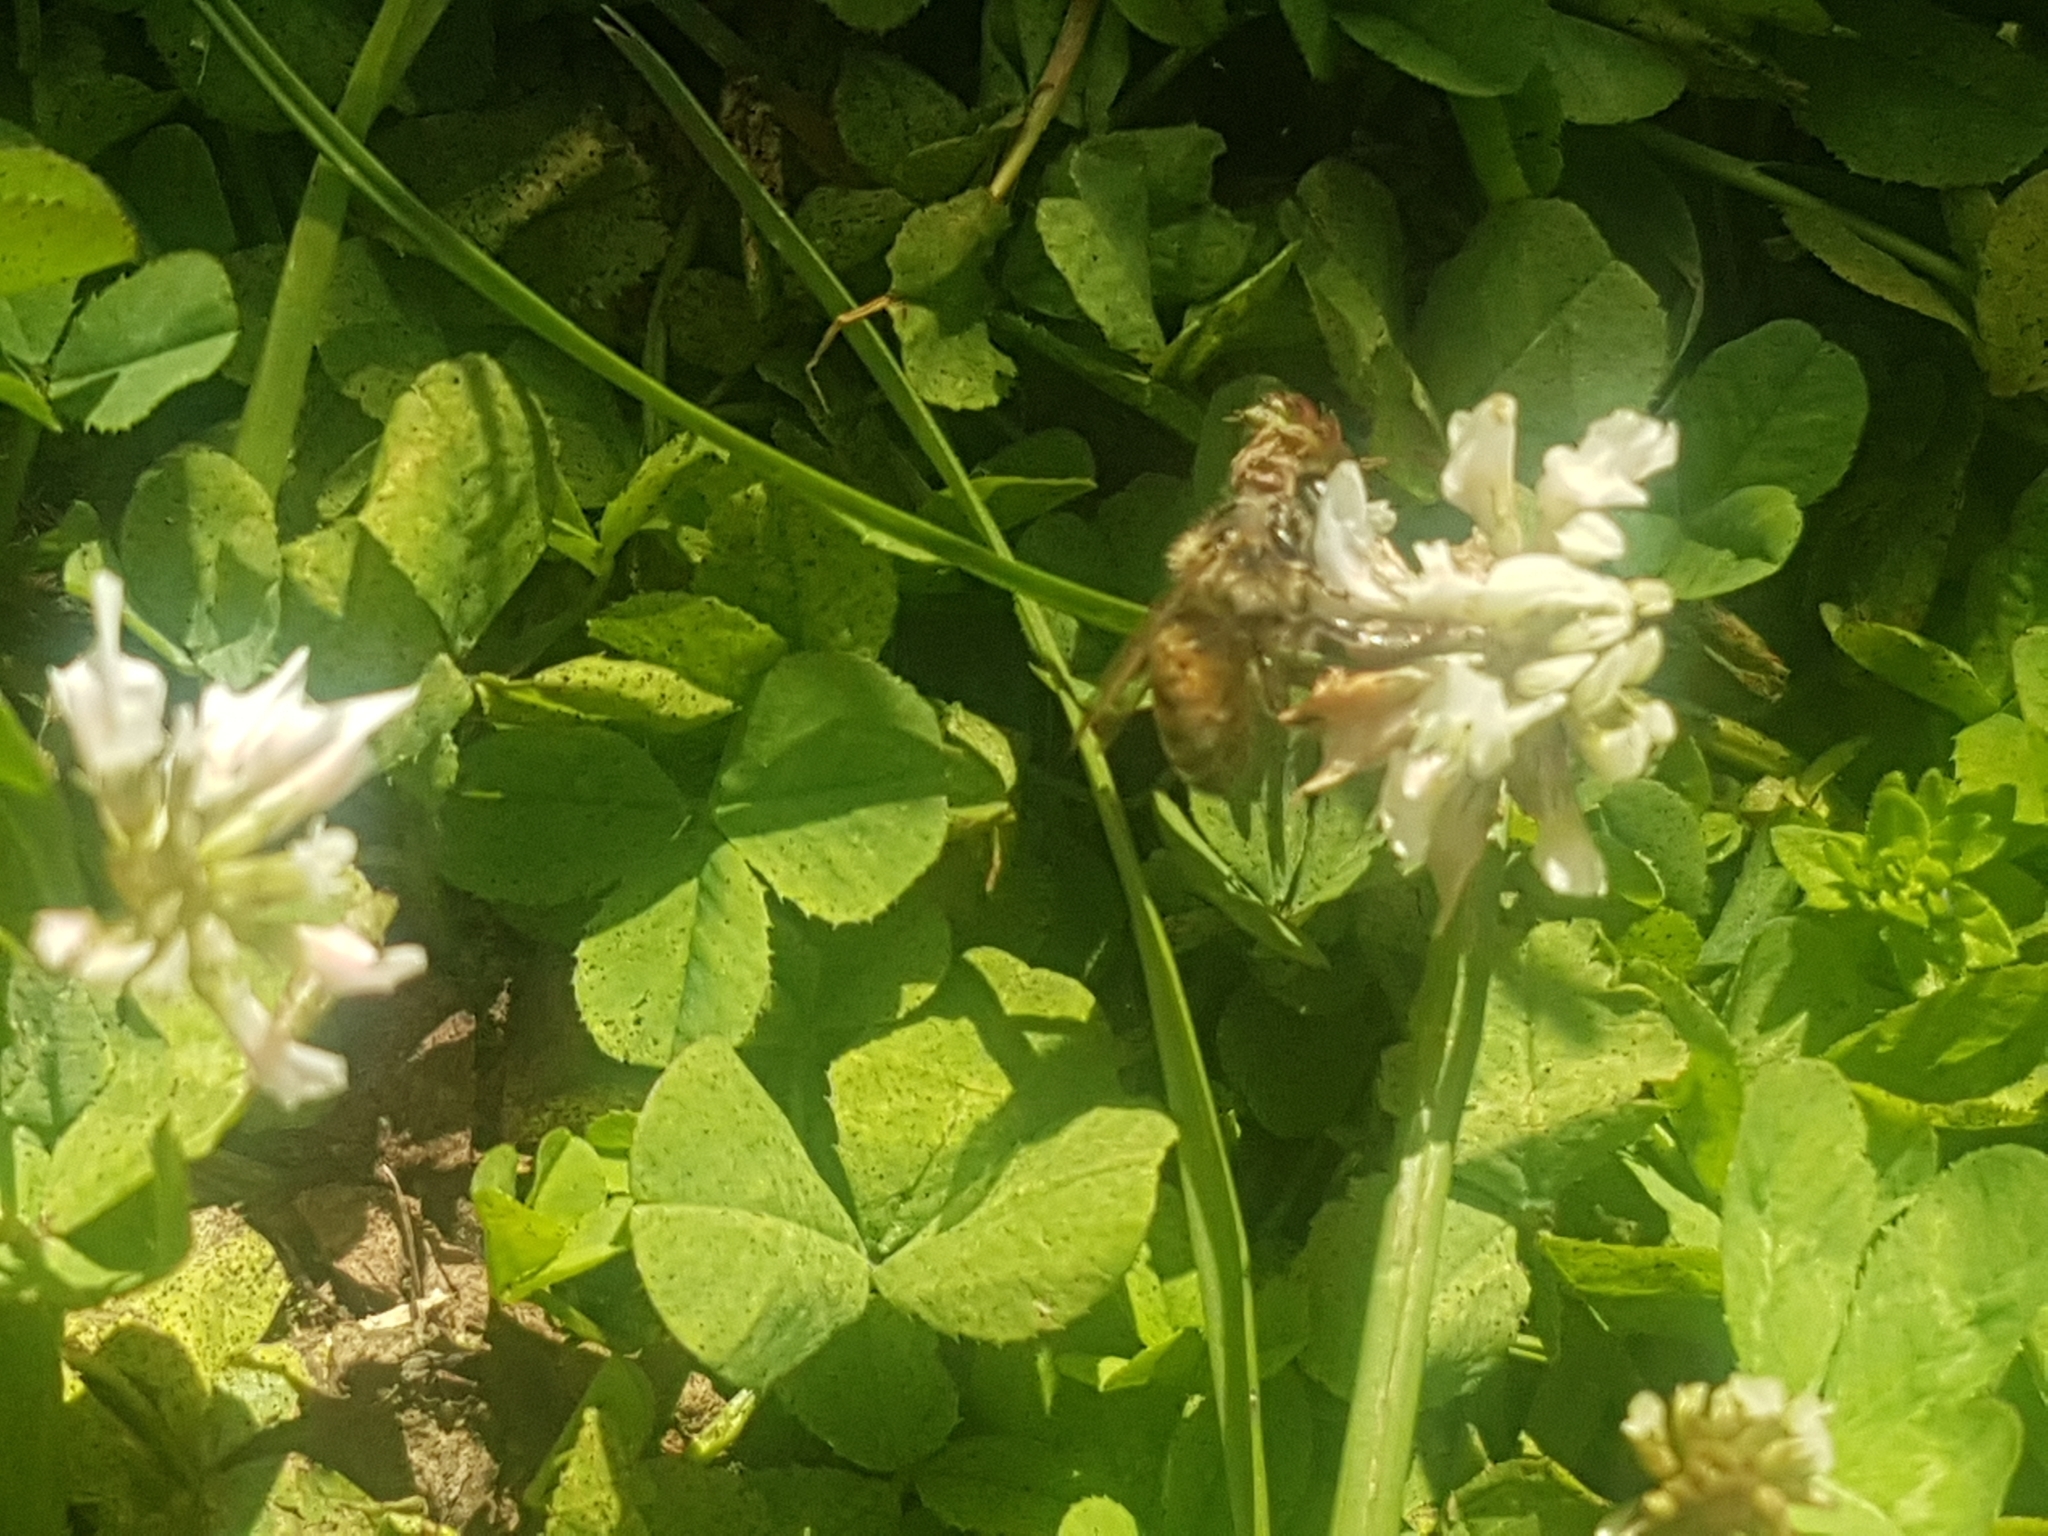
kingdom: Animalia
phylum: Arthropoda
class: Insecta
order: Hymenoptera
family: Apidae
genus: Apis
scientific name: Apis mellifera
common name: Honey bee
